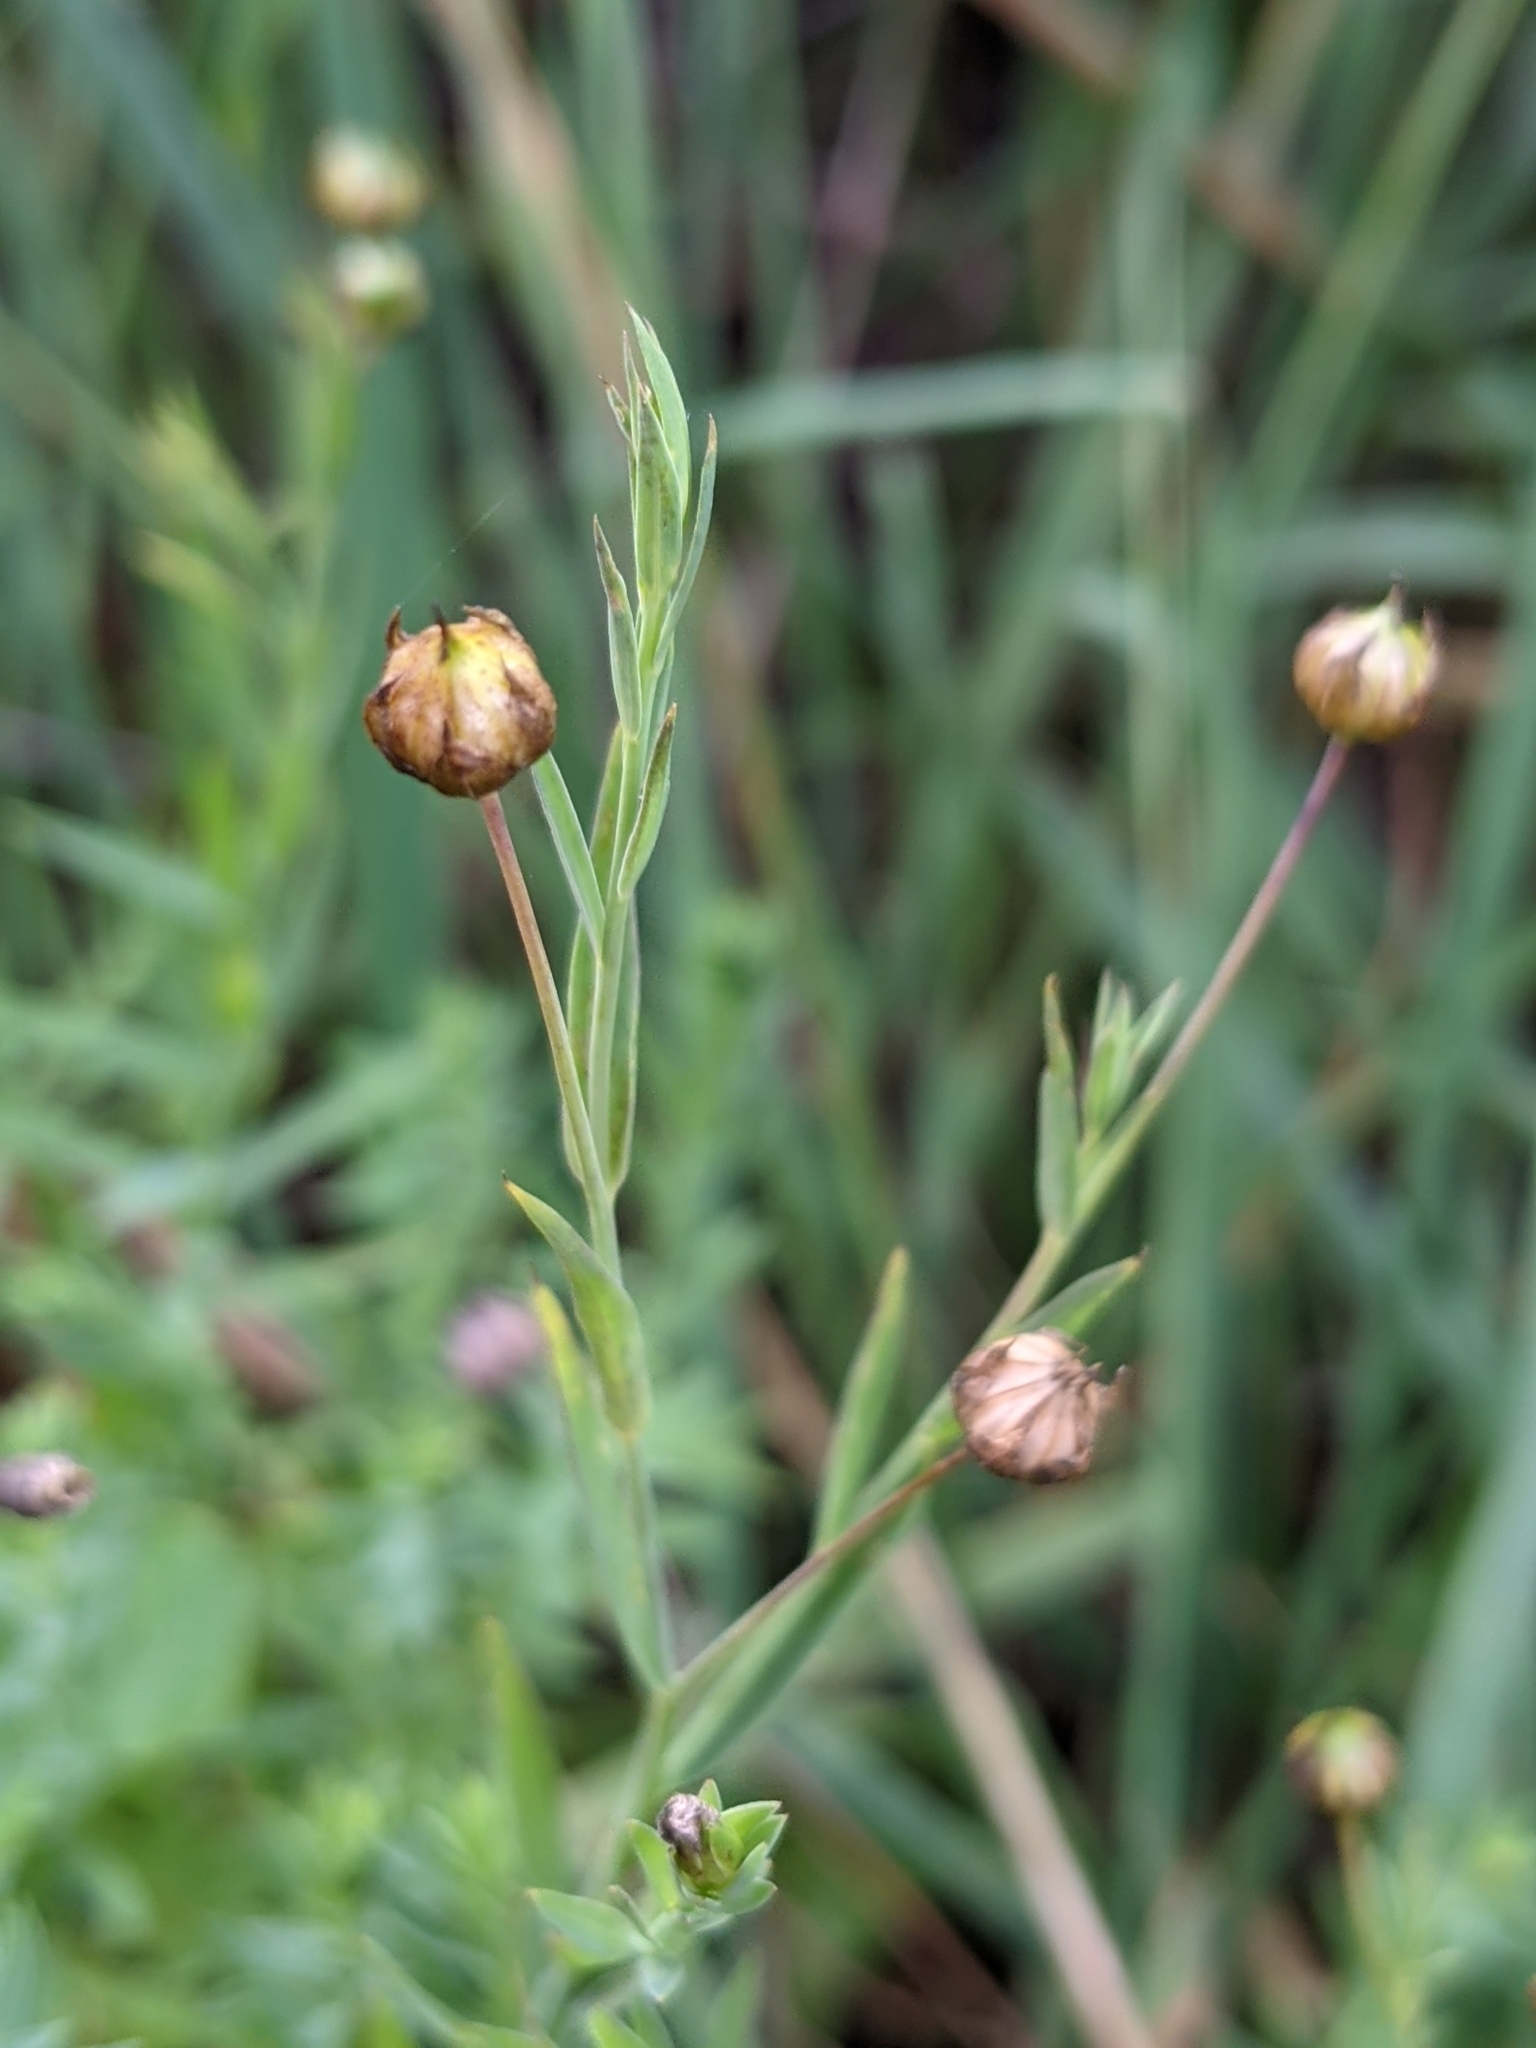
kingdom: Plantae
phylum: Tracheophyta
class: Magnoliopsida
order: Malpighiales
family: Linaceae
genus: Linum
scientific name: Linum usitatissimum
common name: Flax
